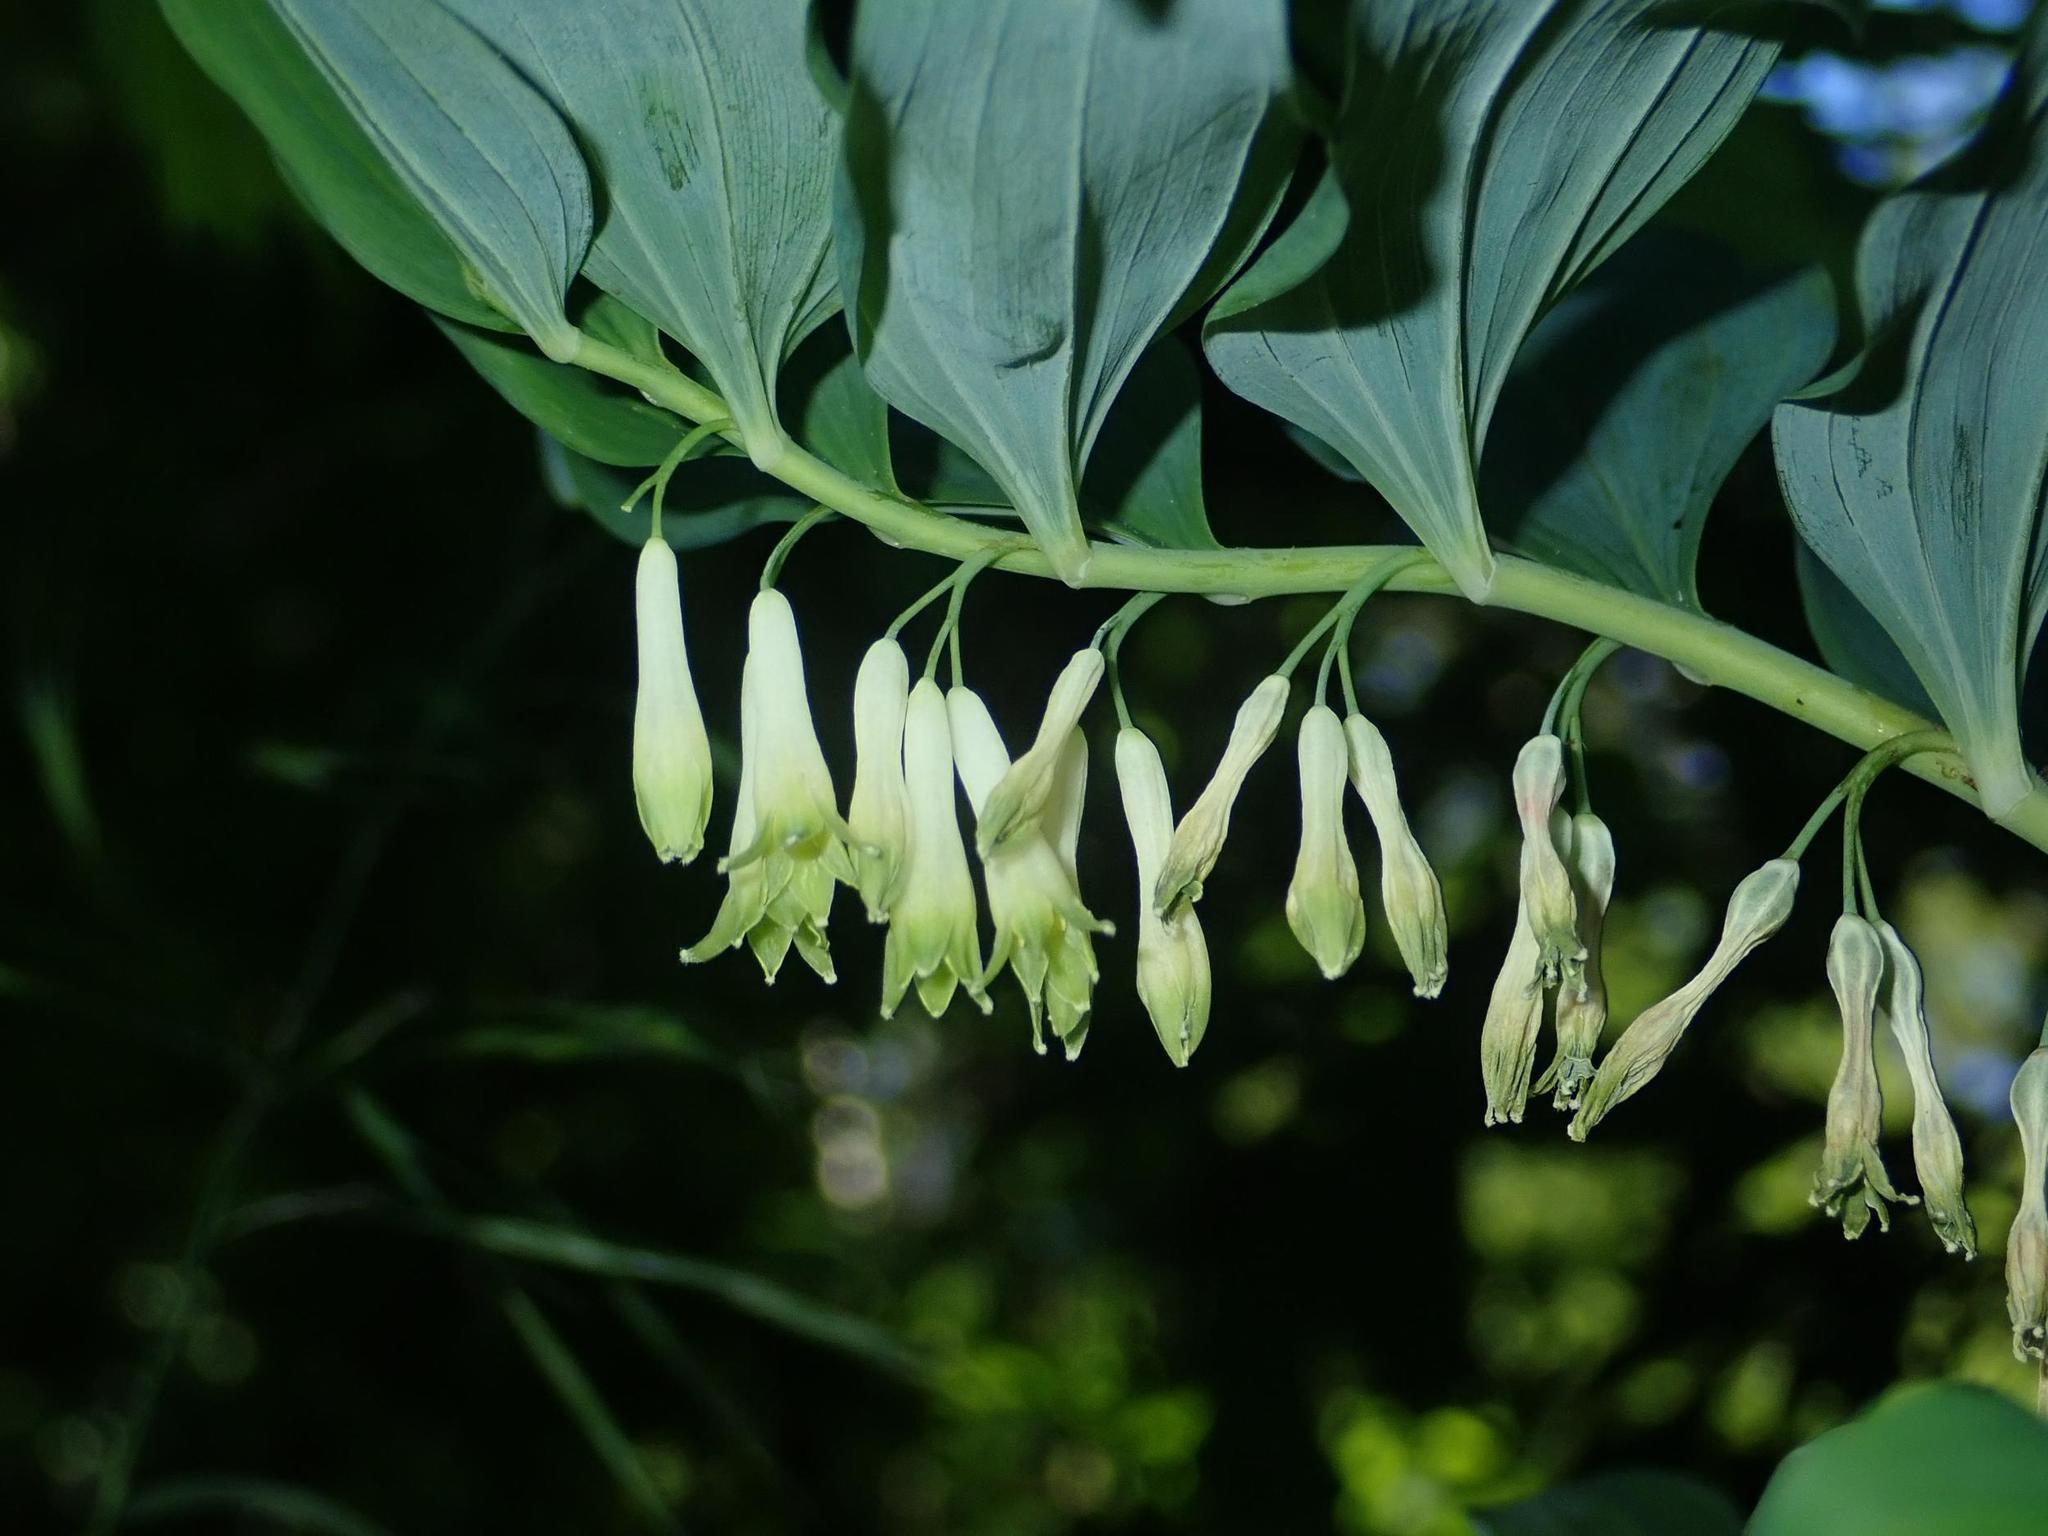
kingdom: Plantae
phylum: Tracheophyta
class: Liliopsida
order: Asparagales
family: Asparagaceae
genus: Polygonatum
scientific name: Polygonatum multiflorum
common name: Solomon's-seal
